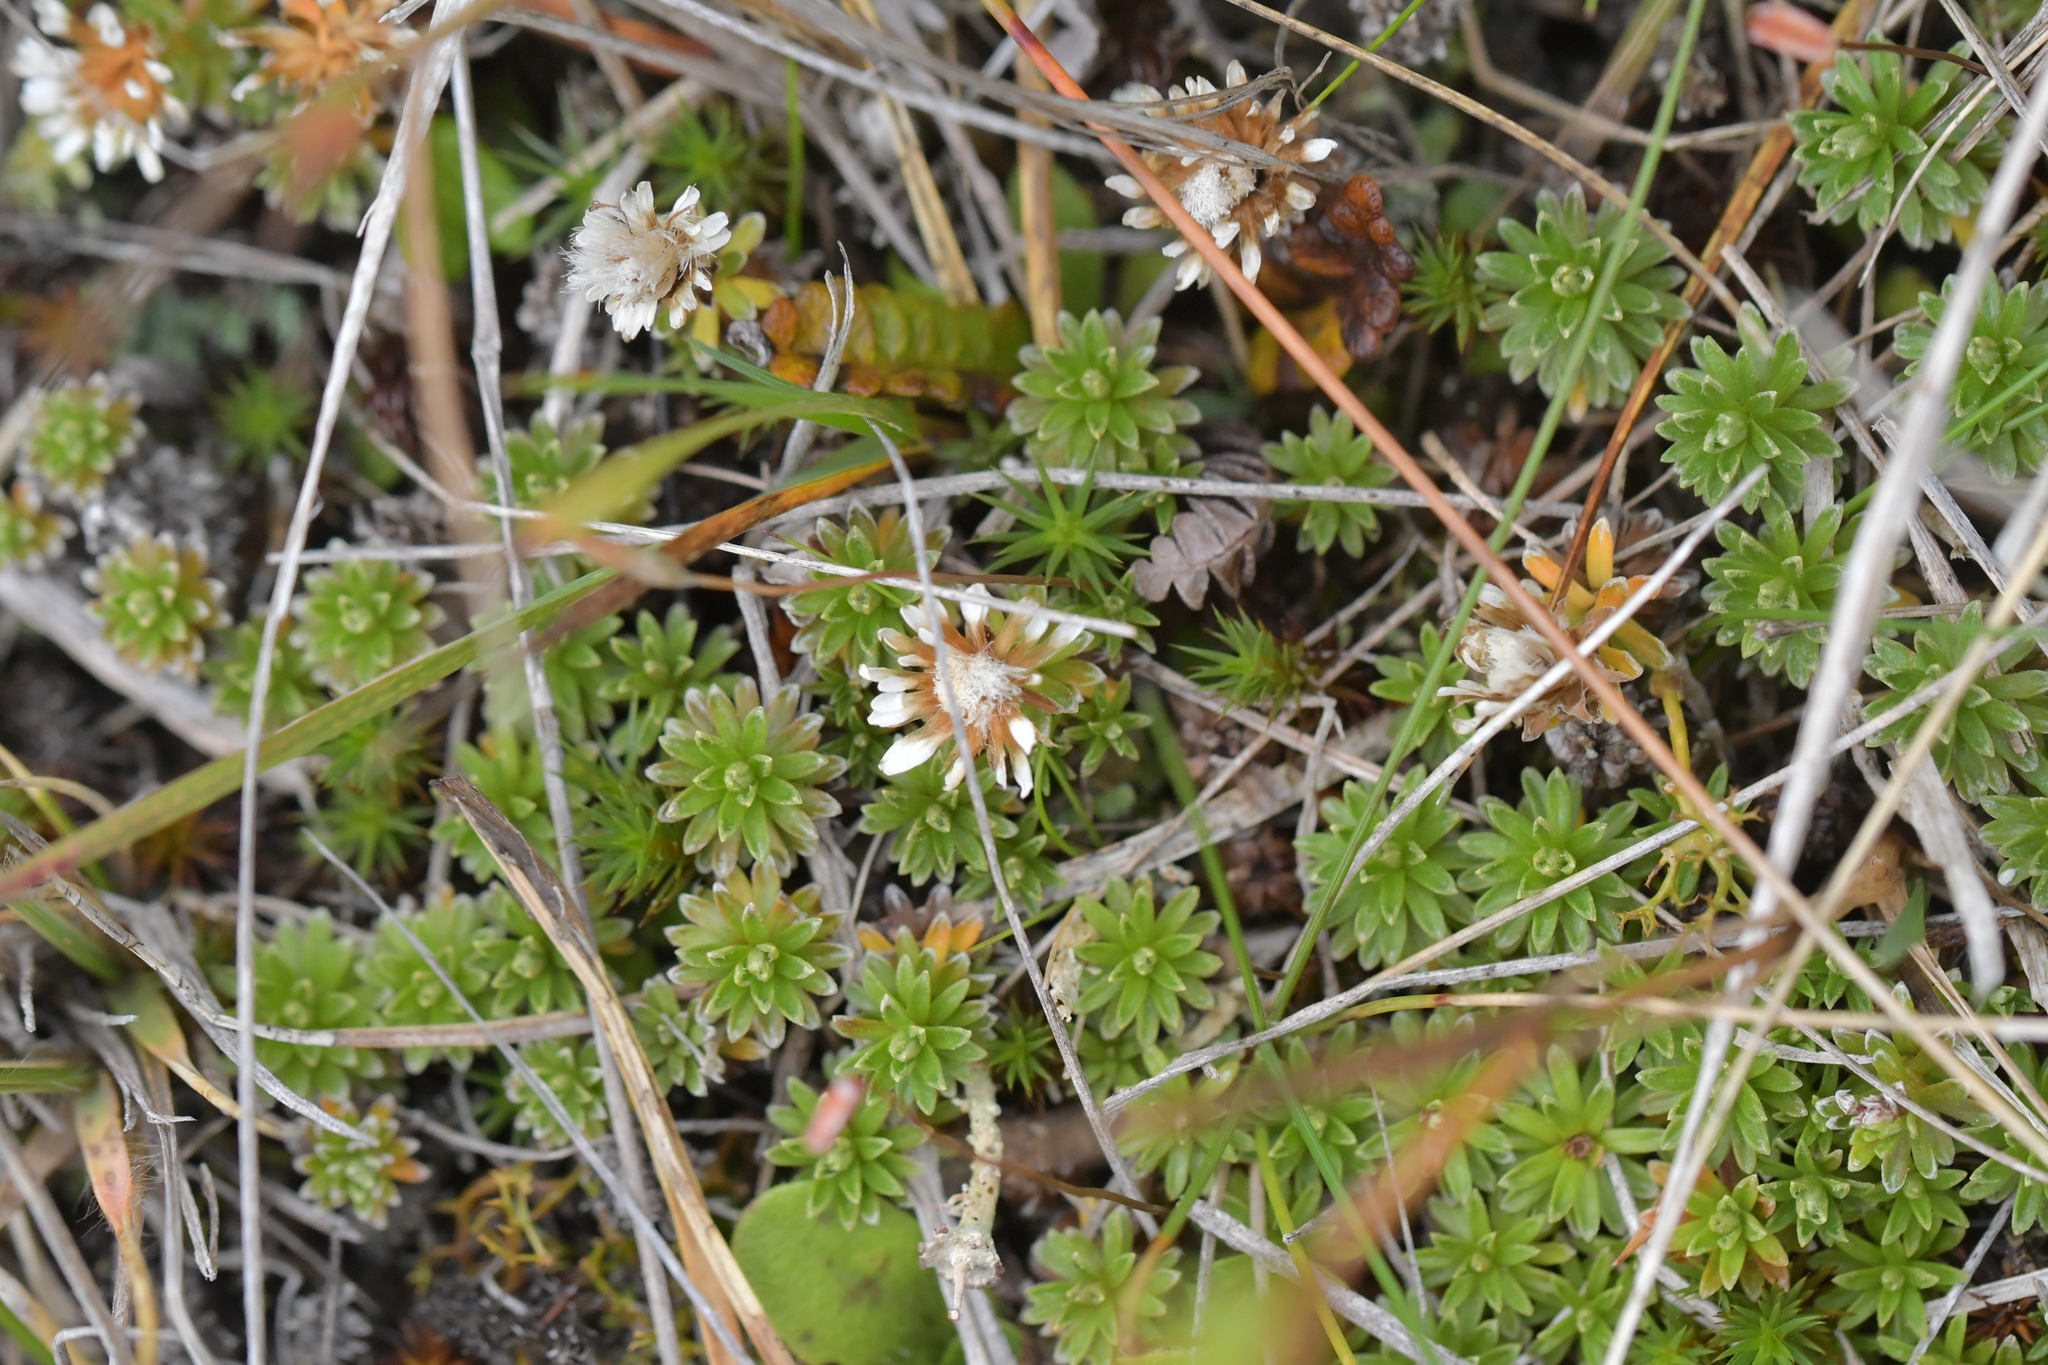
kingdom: Plantae
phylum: Tracheophyta
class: Magnoliopsida
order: Asterales
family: Asteraceae
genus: Raoulia
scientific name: Raoulia subsericea
